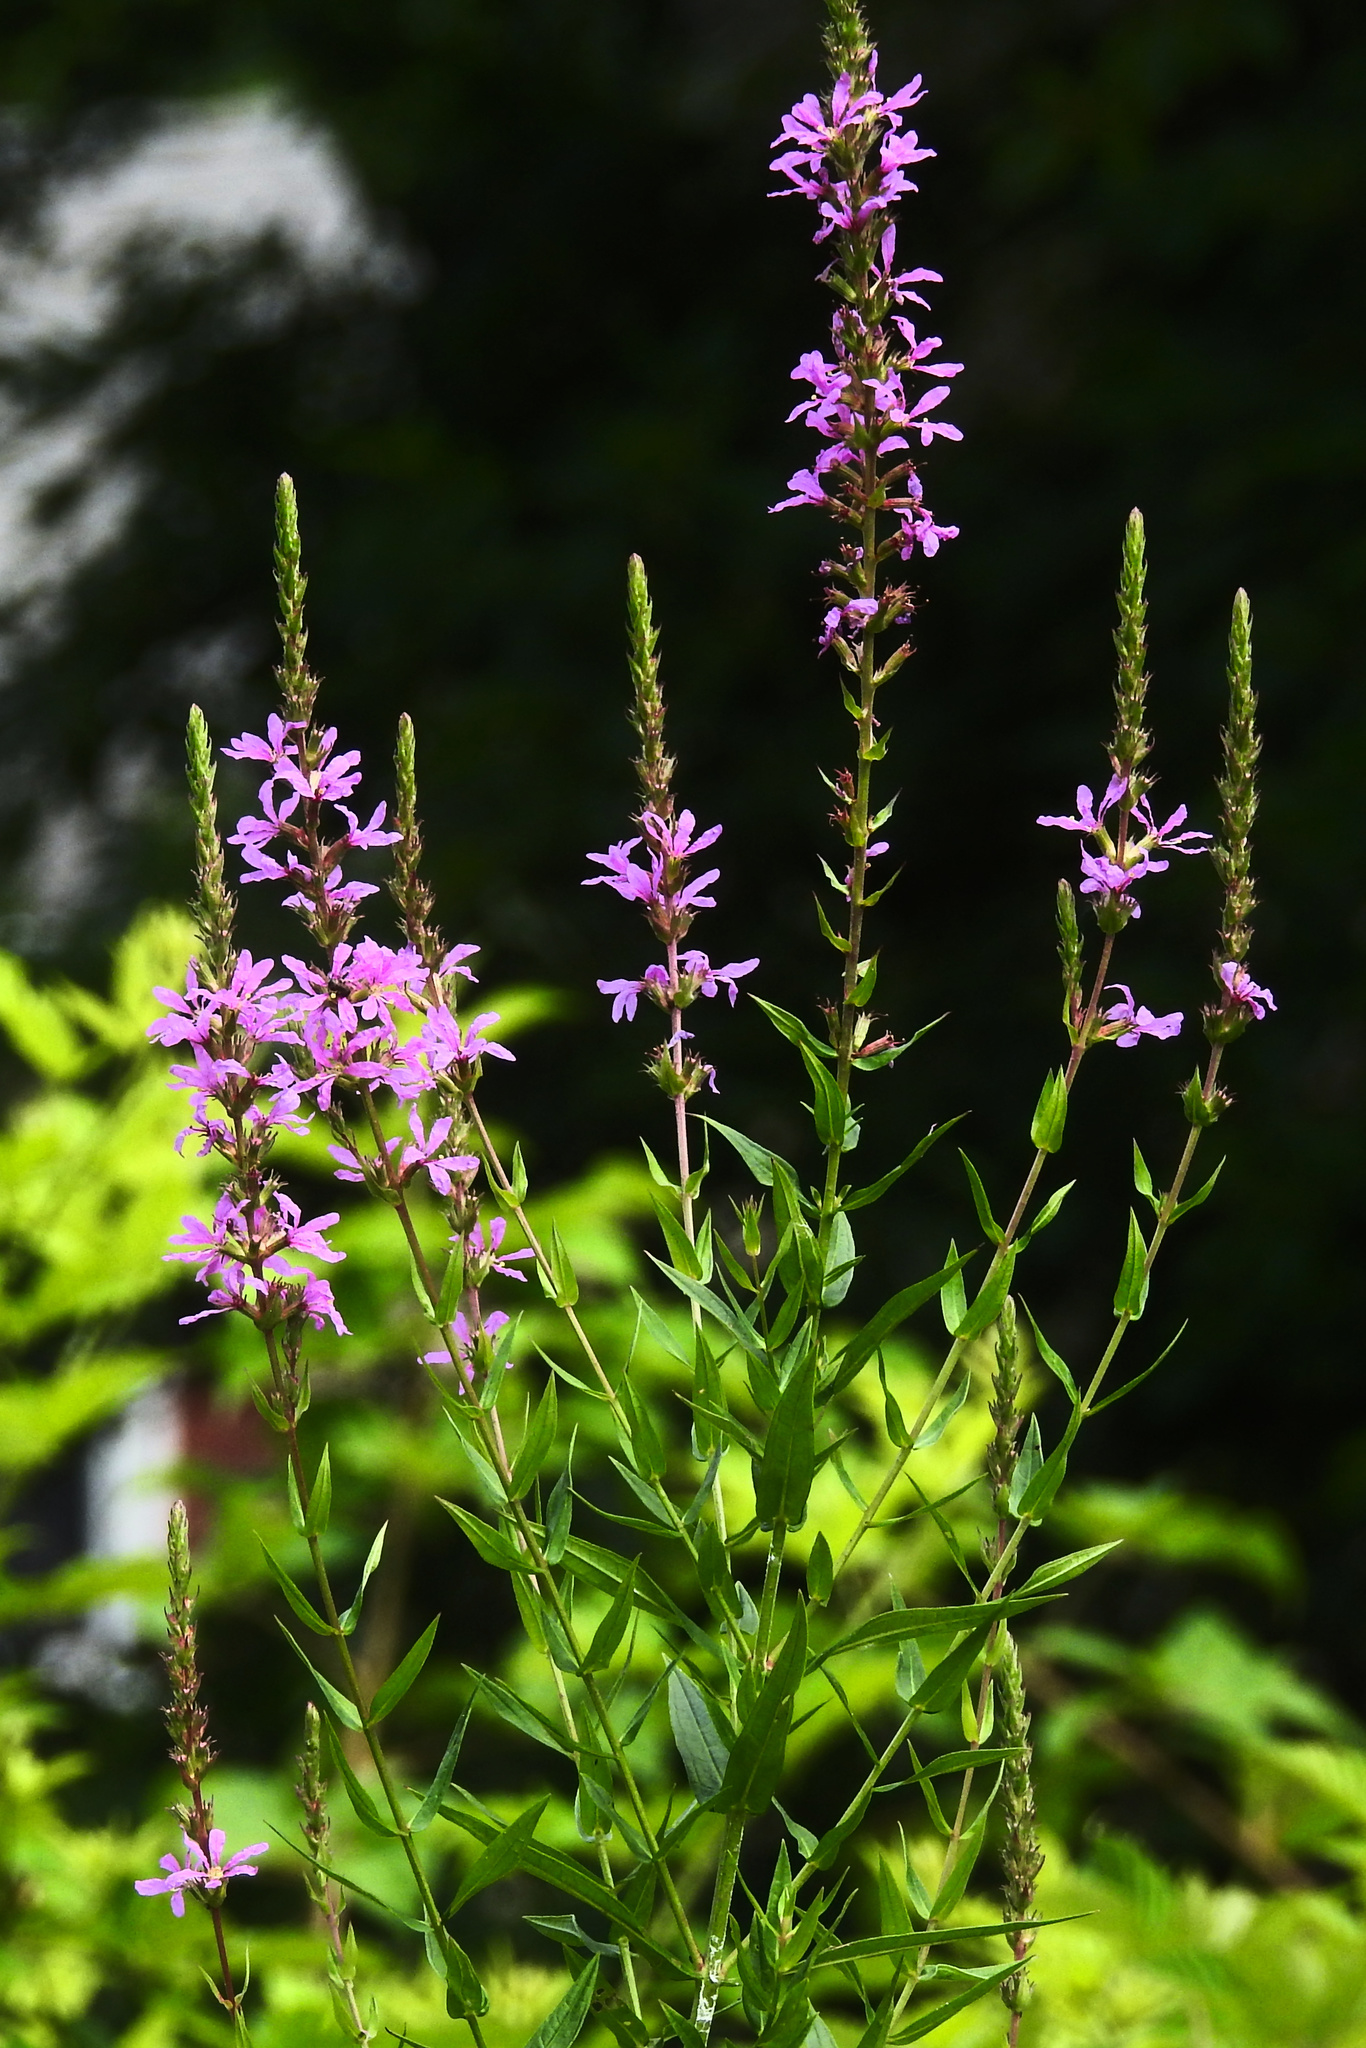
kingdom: Plantae
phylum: Tracheophyta
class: Magnoliopsida
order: Myrtales
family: Lythraceae
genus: Lythrum
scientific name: Lythrum salicaria
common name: Purple loosestrife
